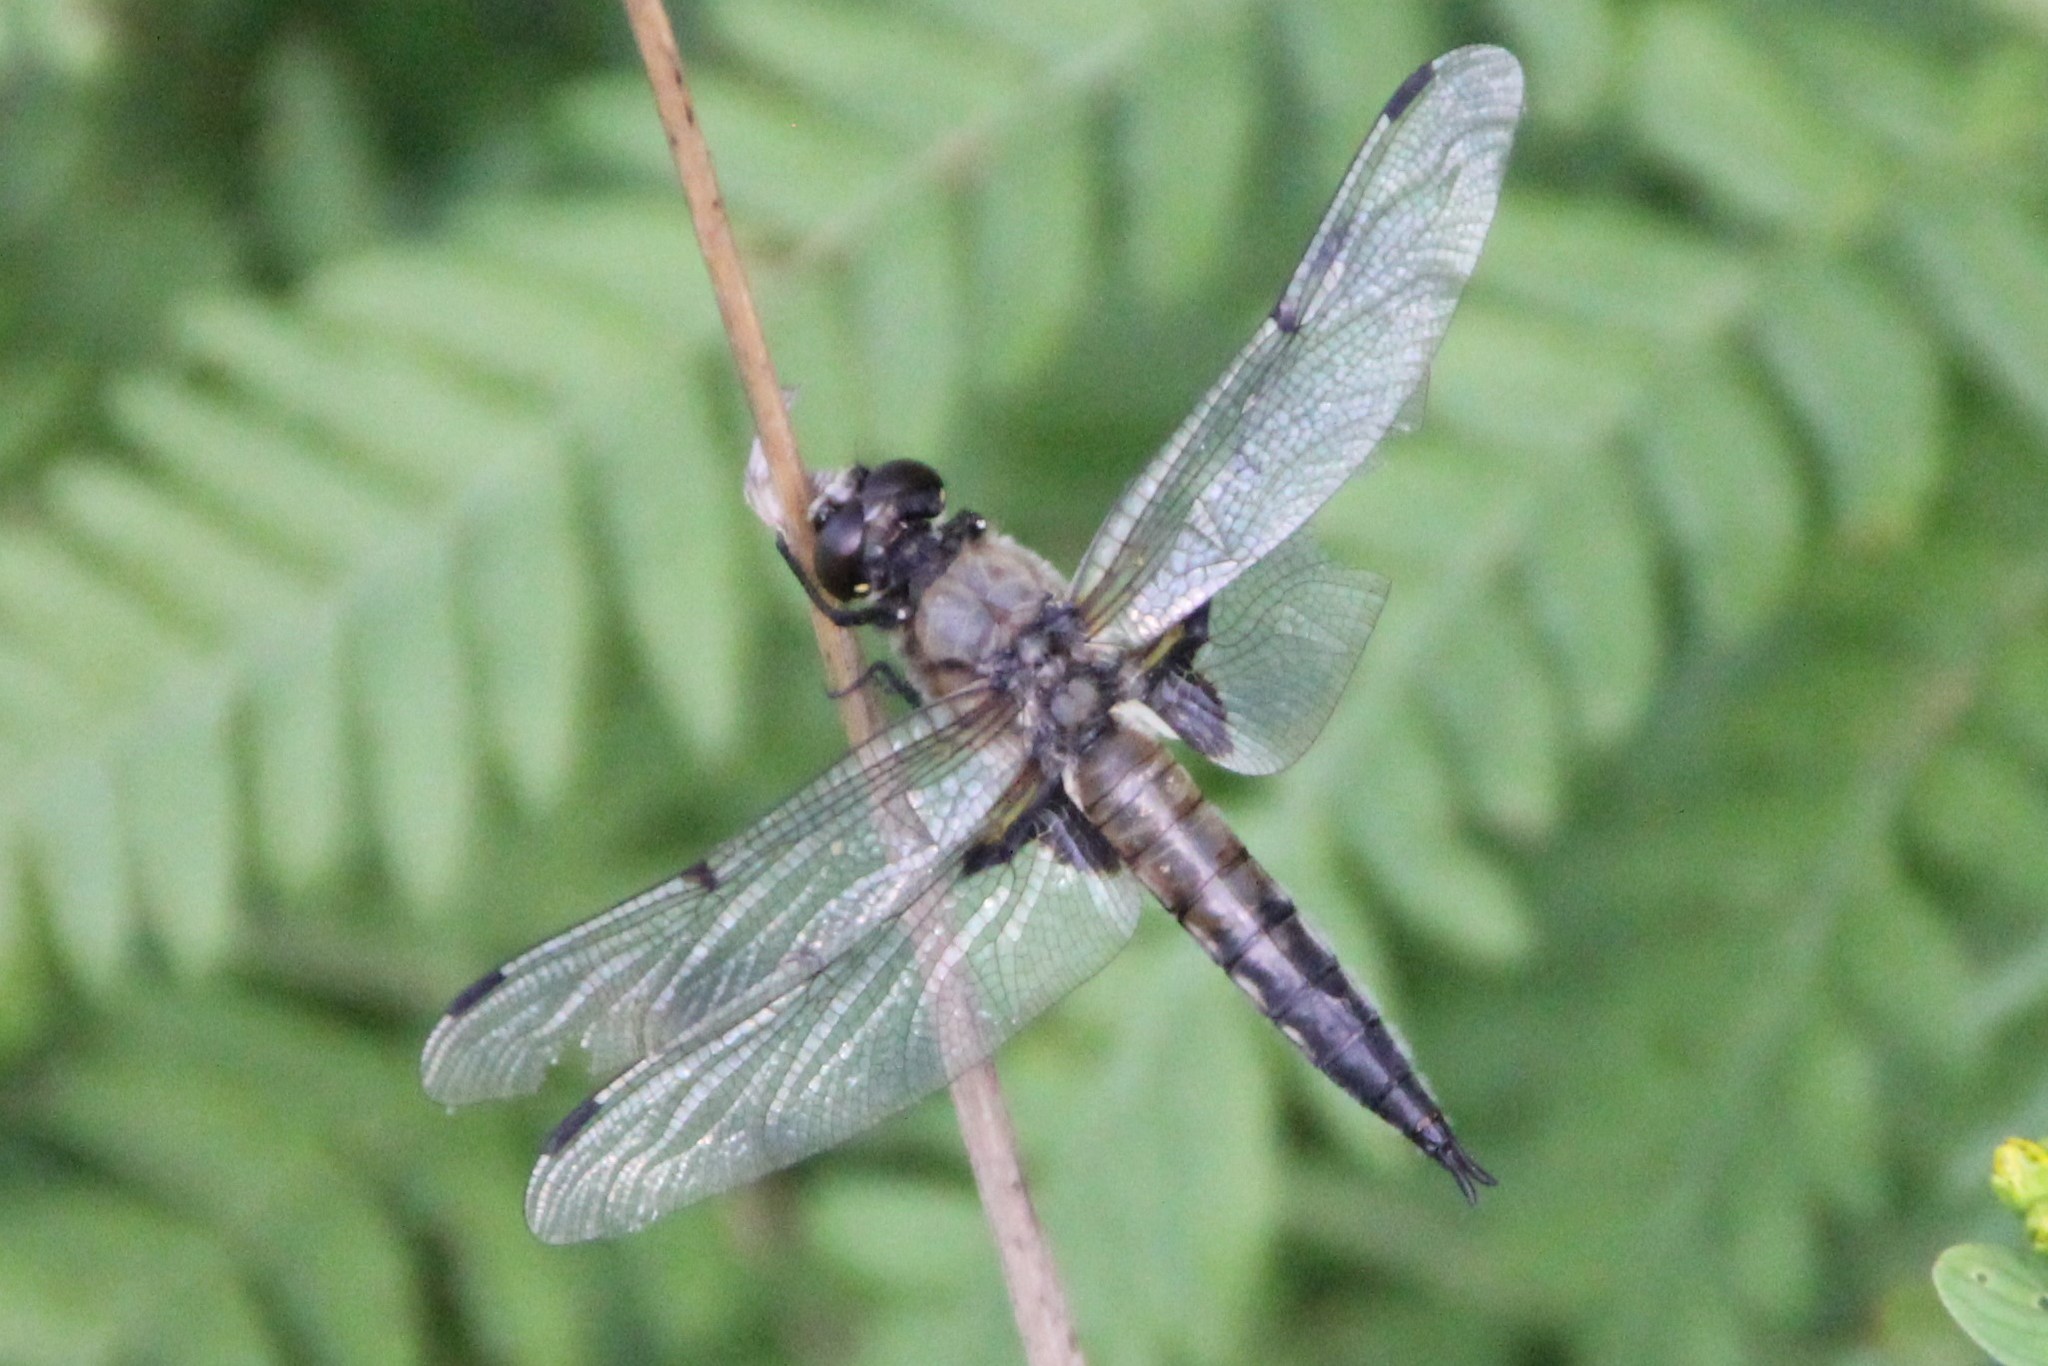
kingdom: Animalia
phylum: Arthropoda
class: Insecta
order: Odonata
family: Libellulidae
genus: Libellula
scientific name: Libellula quadrimaculata
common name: Four-spotted chaser
